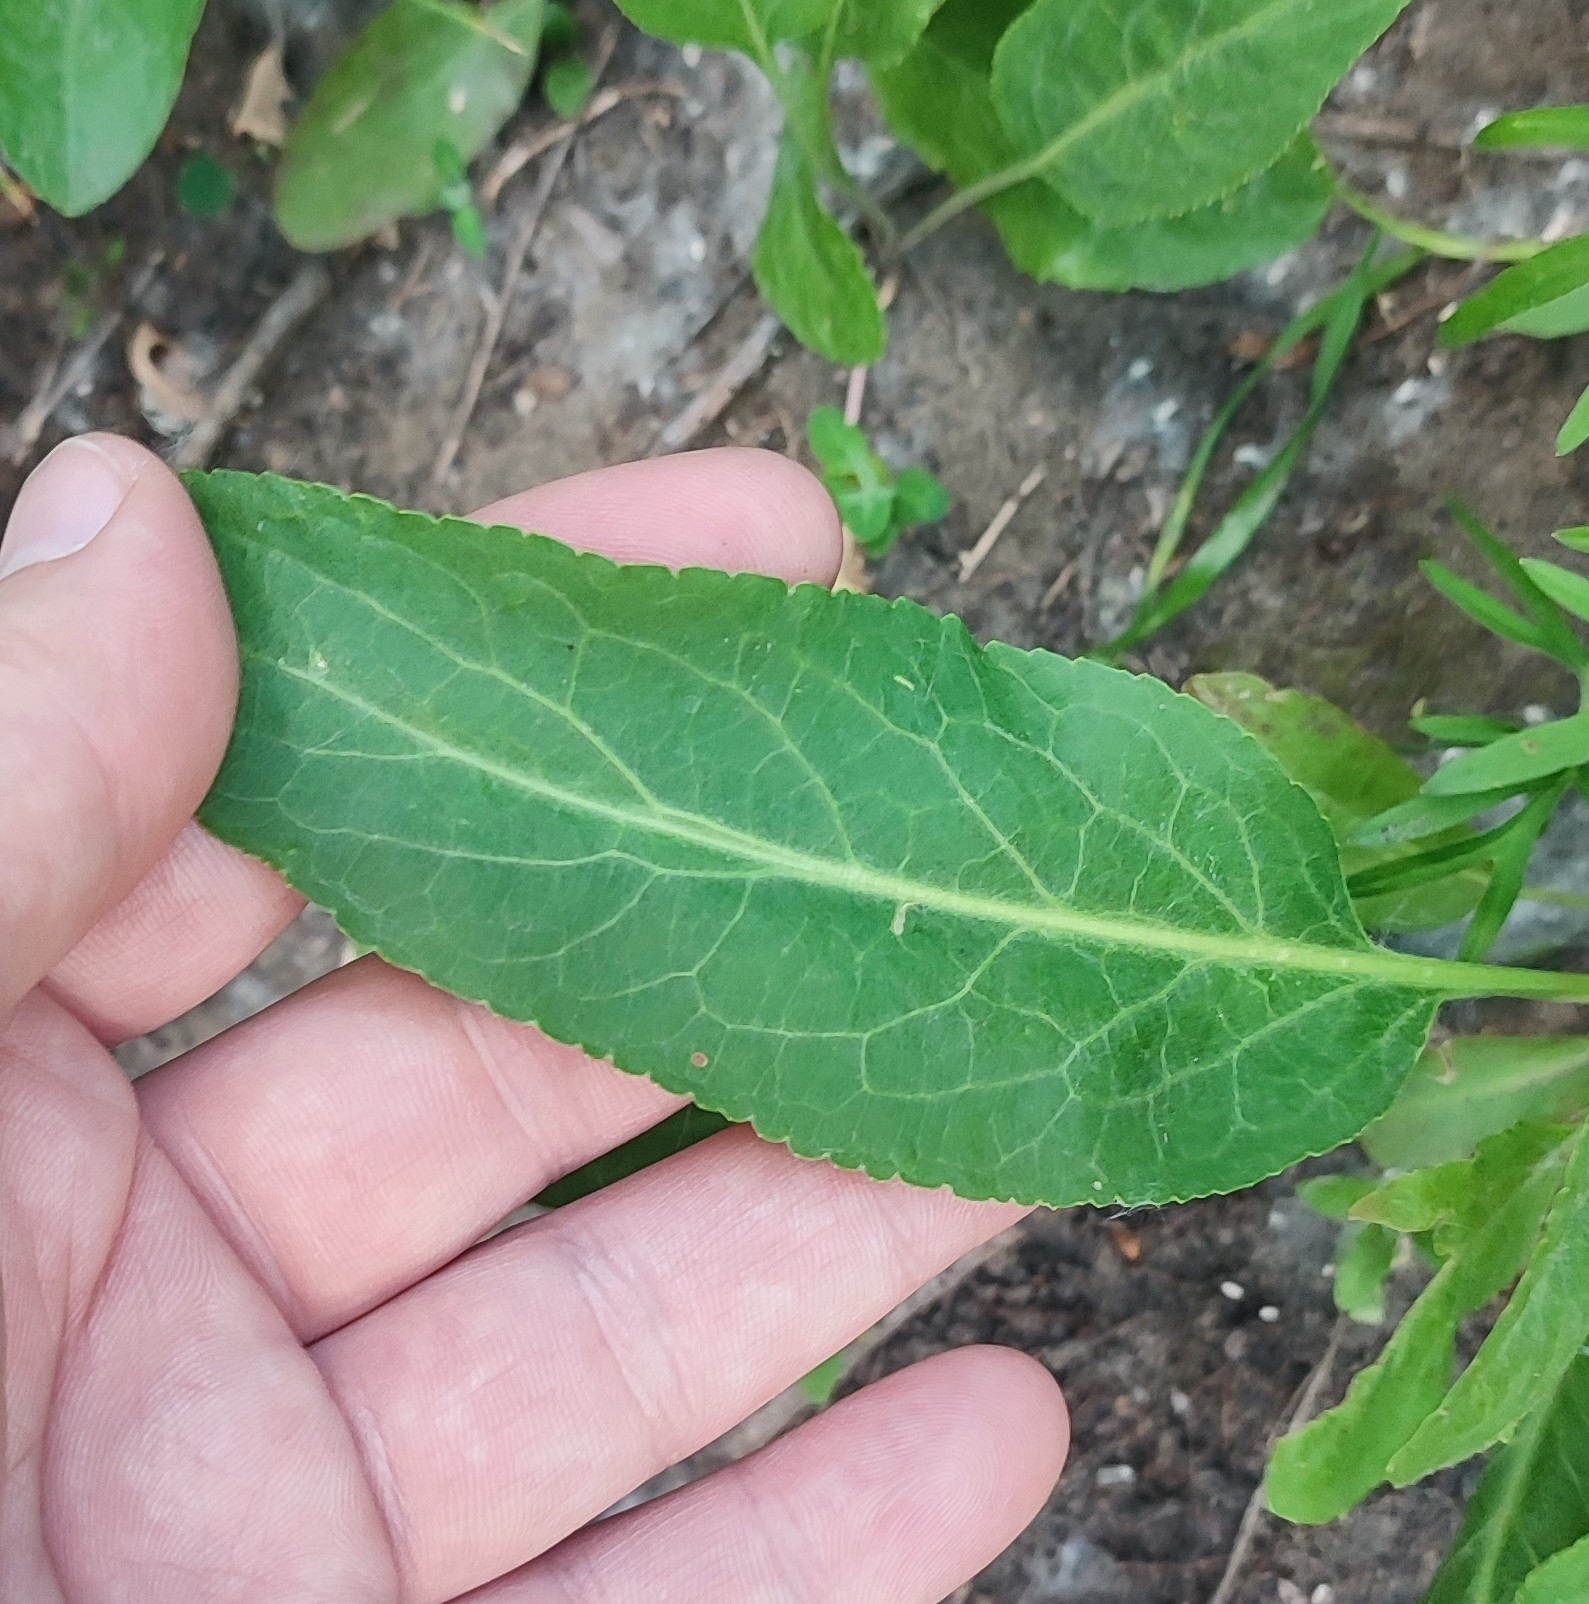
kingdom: Plantae
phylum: Tracheophyta
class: Magnoliopsida
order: Brassicales
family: Brassicaceae
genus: Lepidium
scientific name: Lepidium latifolium
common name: Dittander
